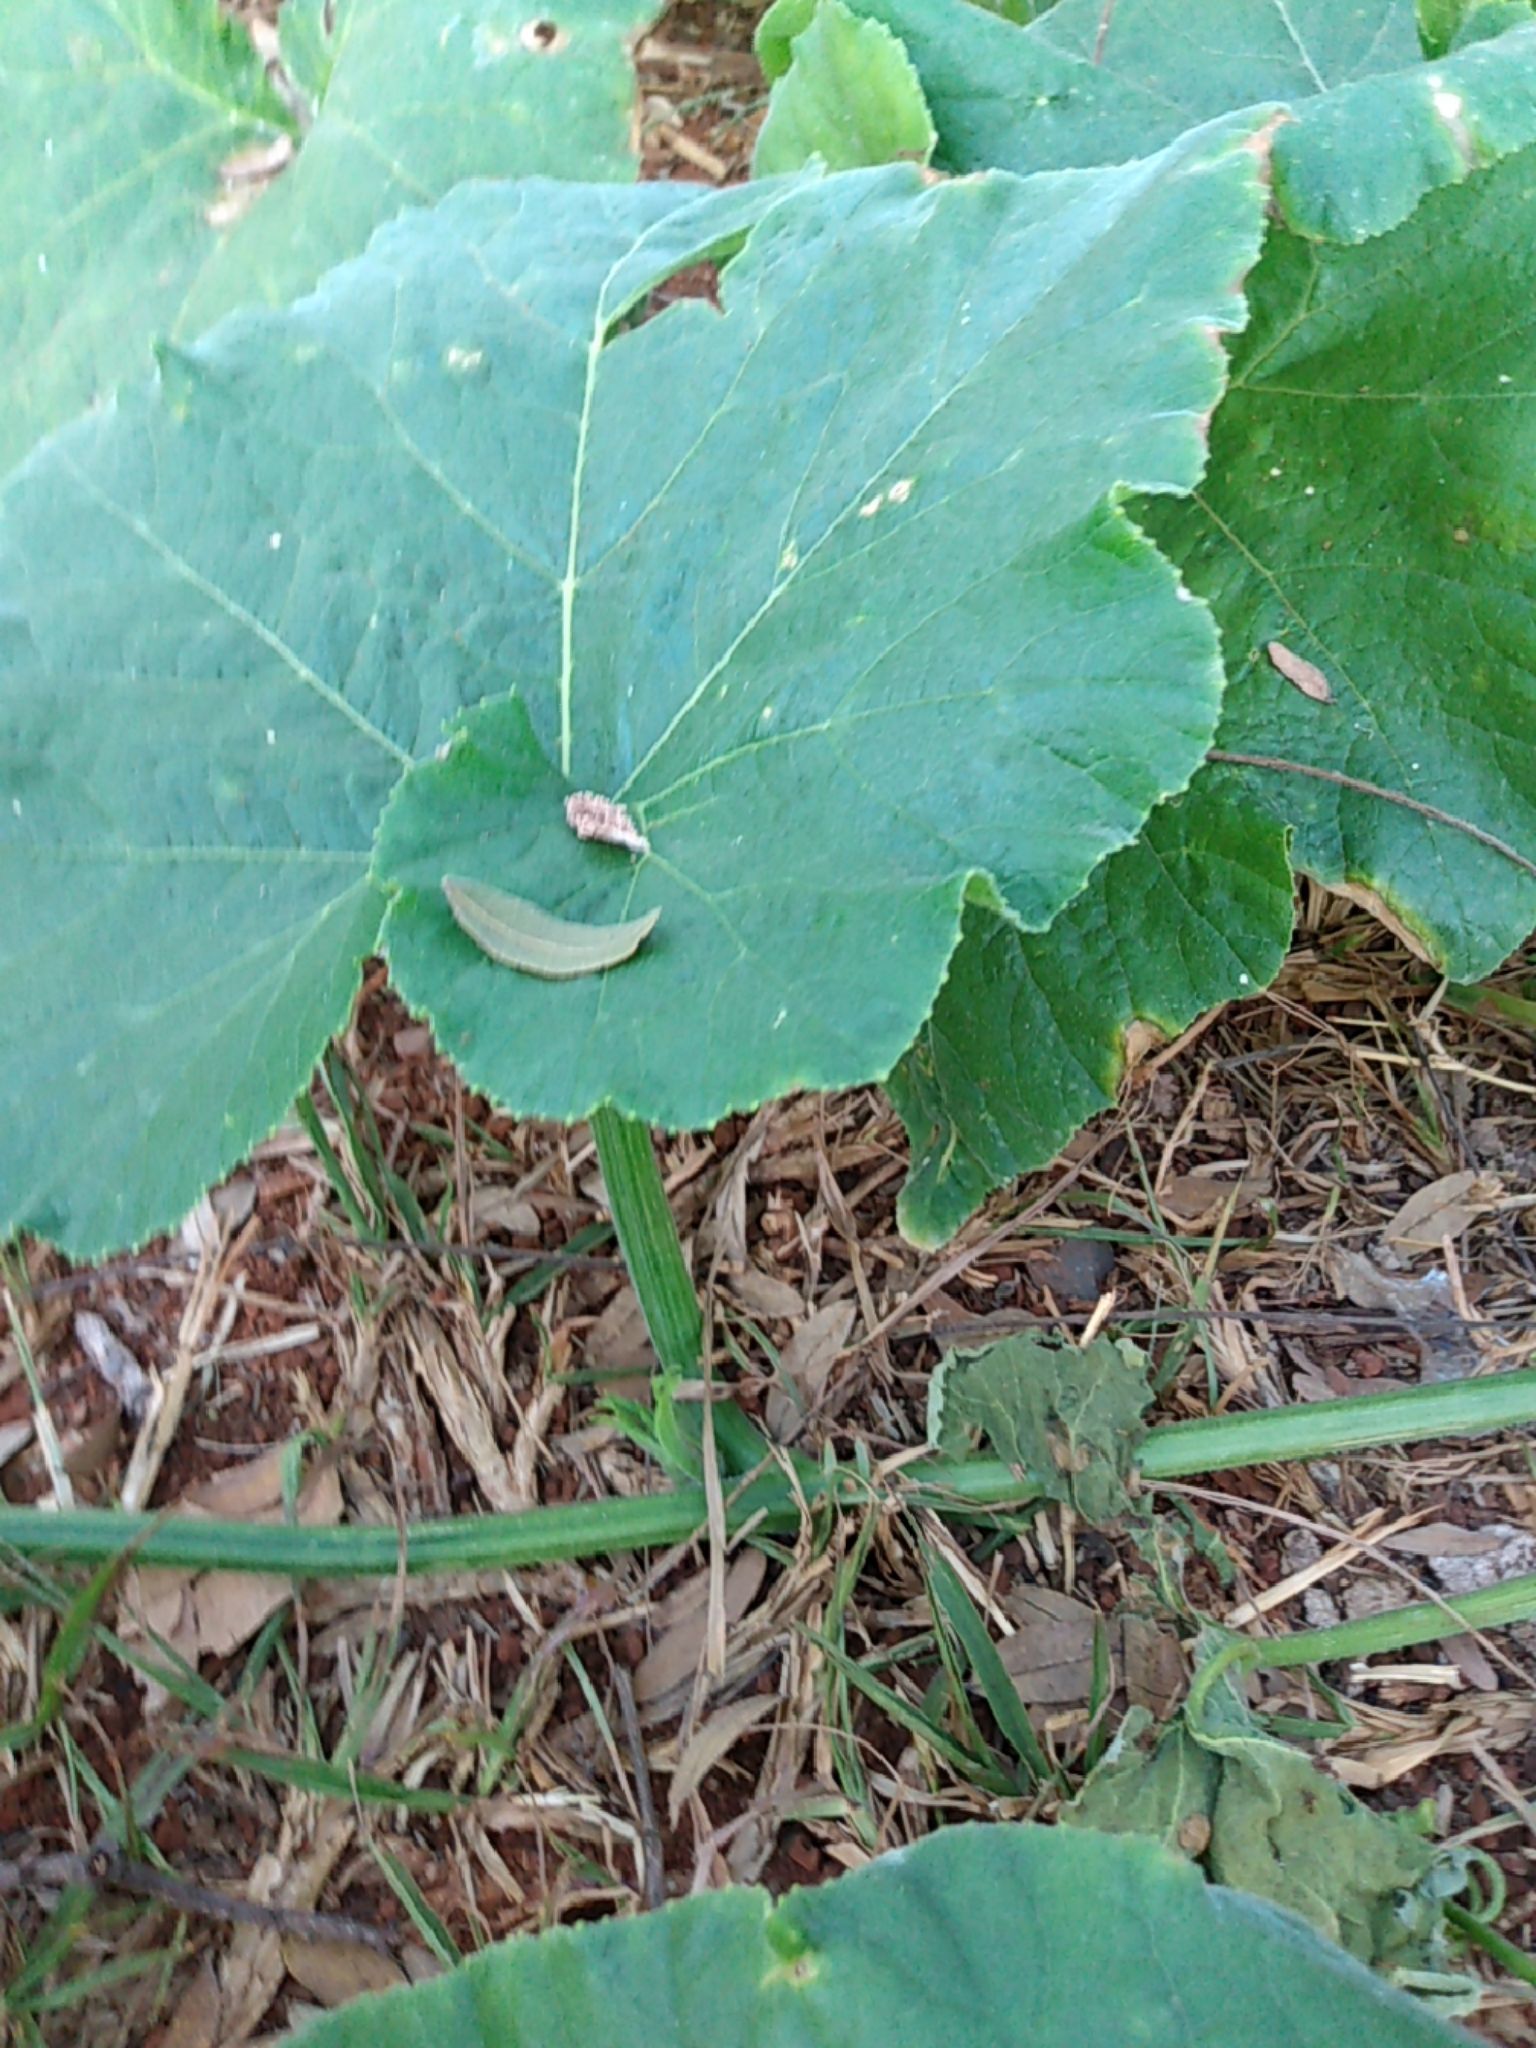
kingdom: Plantae
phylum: Tracheophyta
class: Magnoliopsida
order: Cucurbitales
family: Cucurbitaceae
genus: Cucurbita
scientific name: Cucurbita pepo
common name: Marrow
